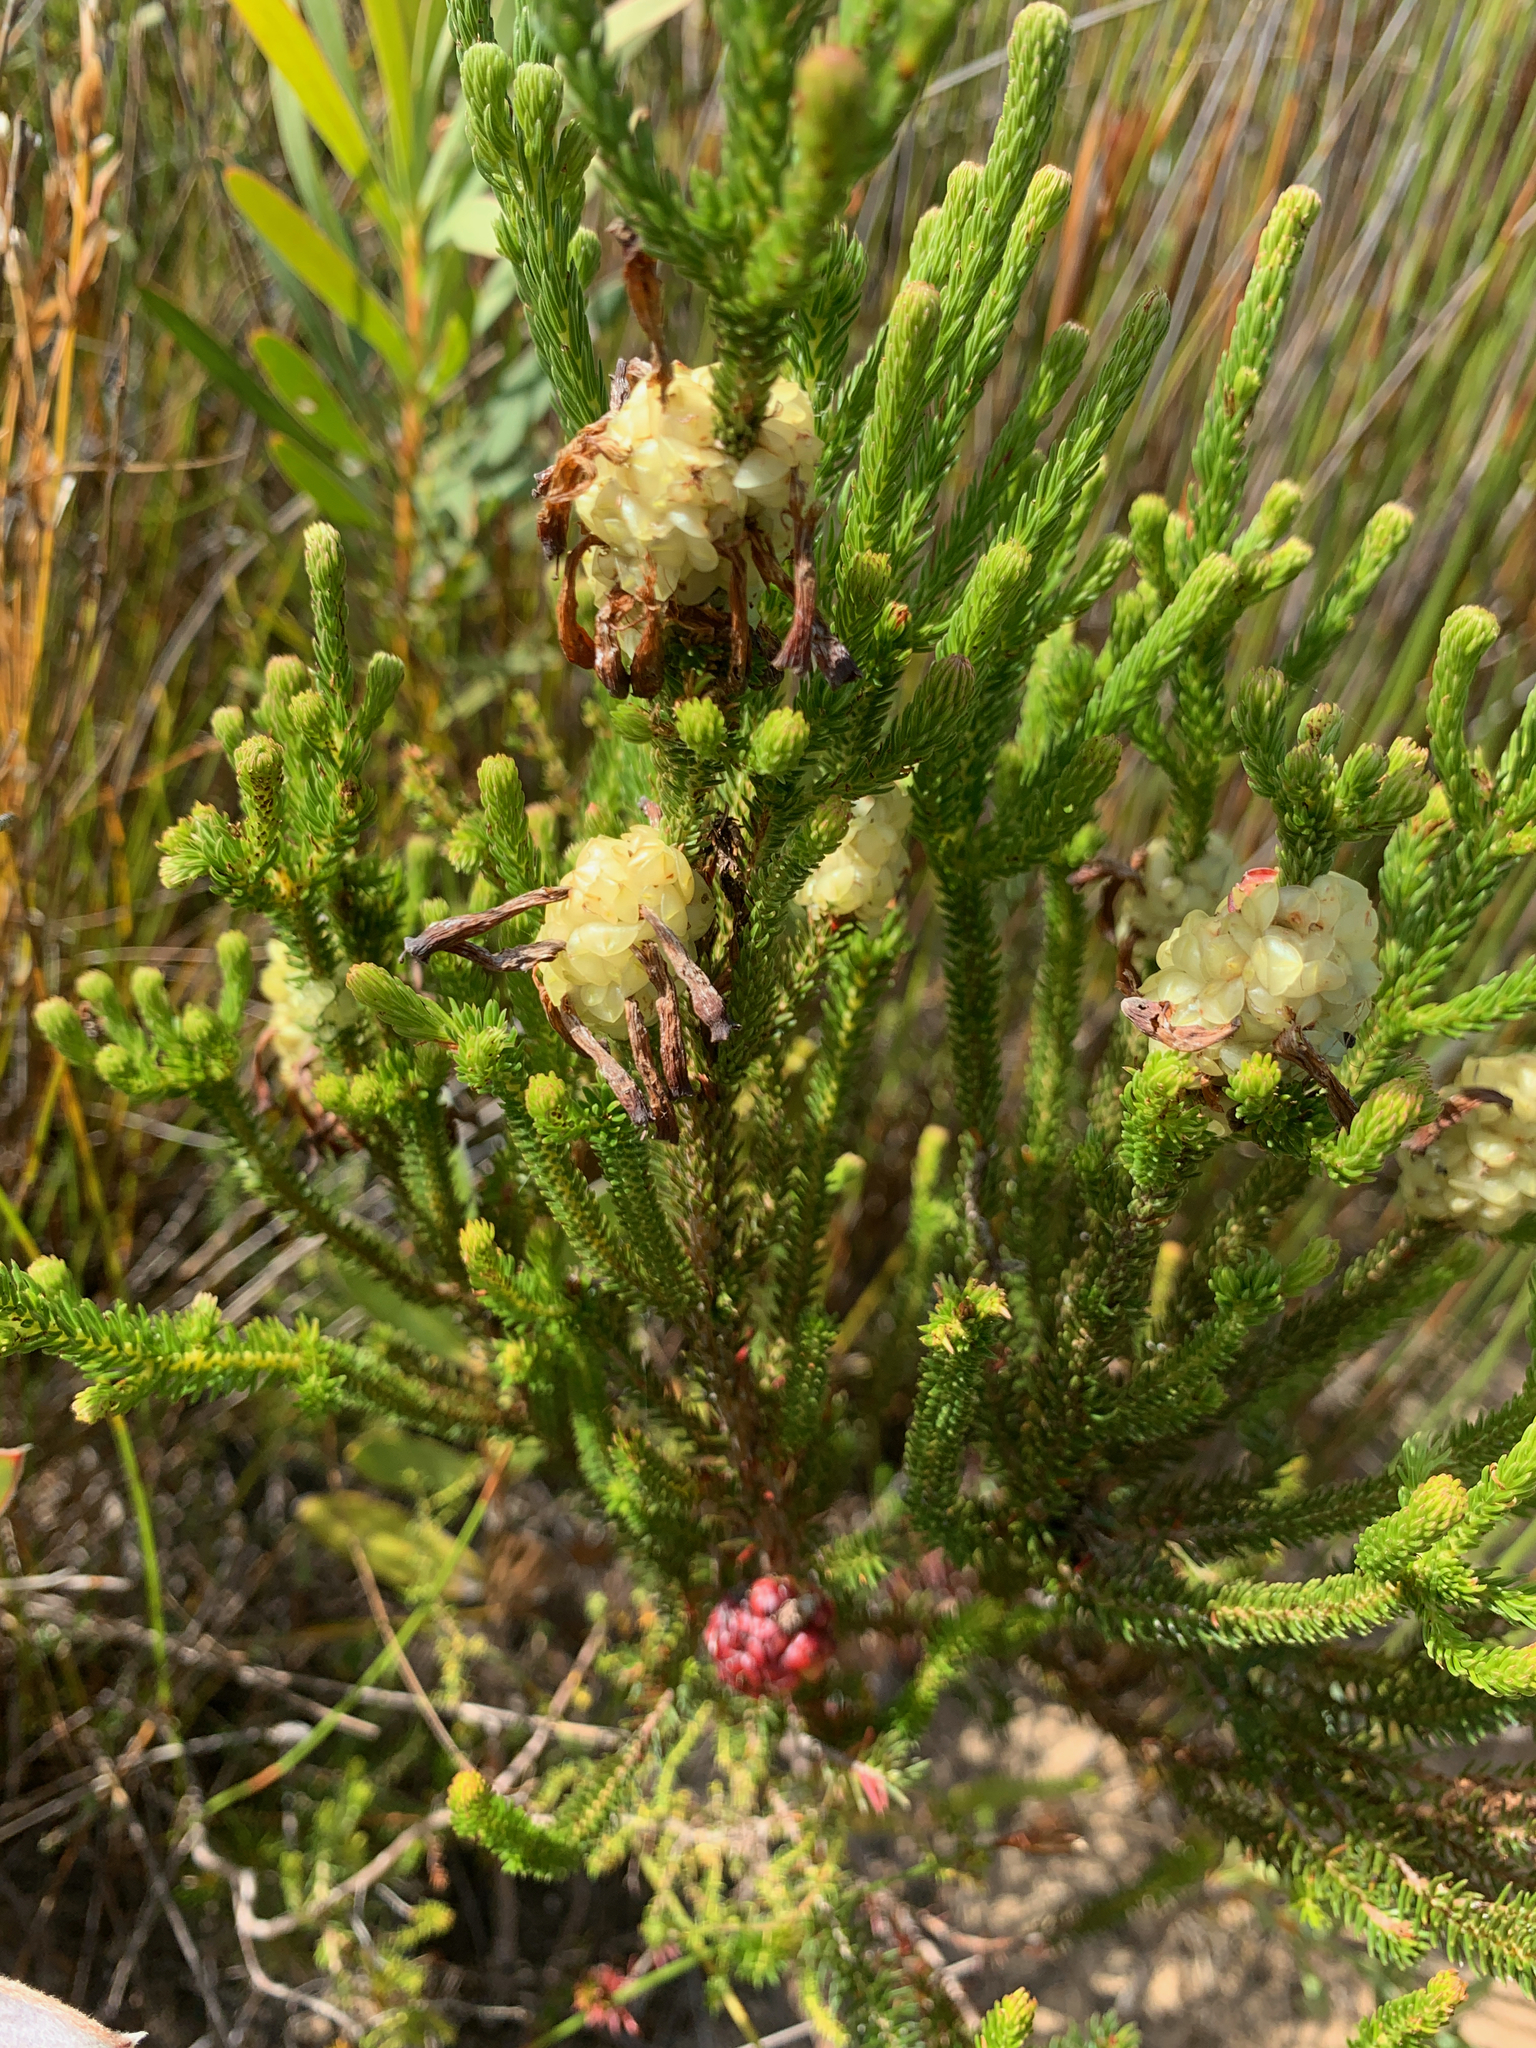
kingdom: Plantae
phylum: Tracheophyta
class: Magnoliopsida
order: Ericales
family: Ericaceae
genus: Erica
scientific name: Erica sessiliflora
